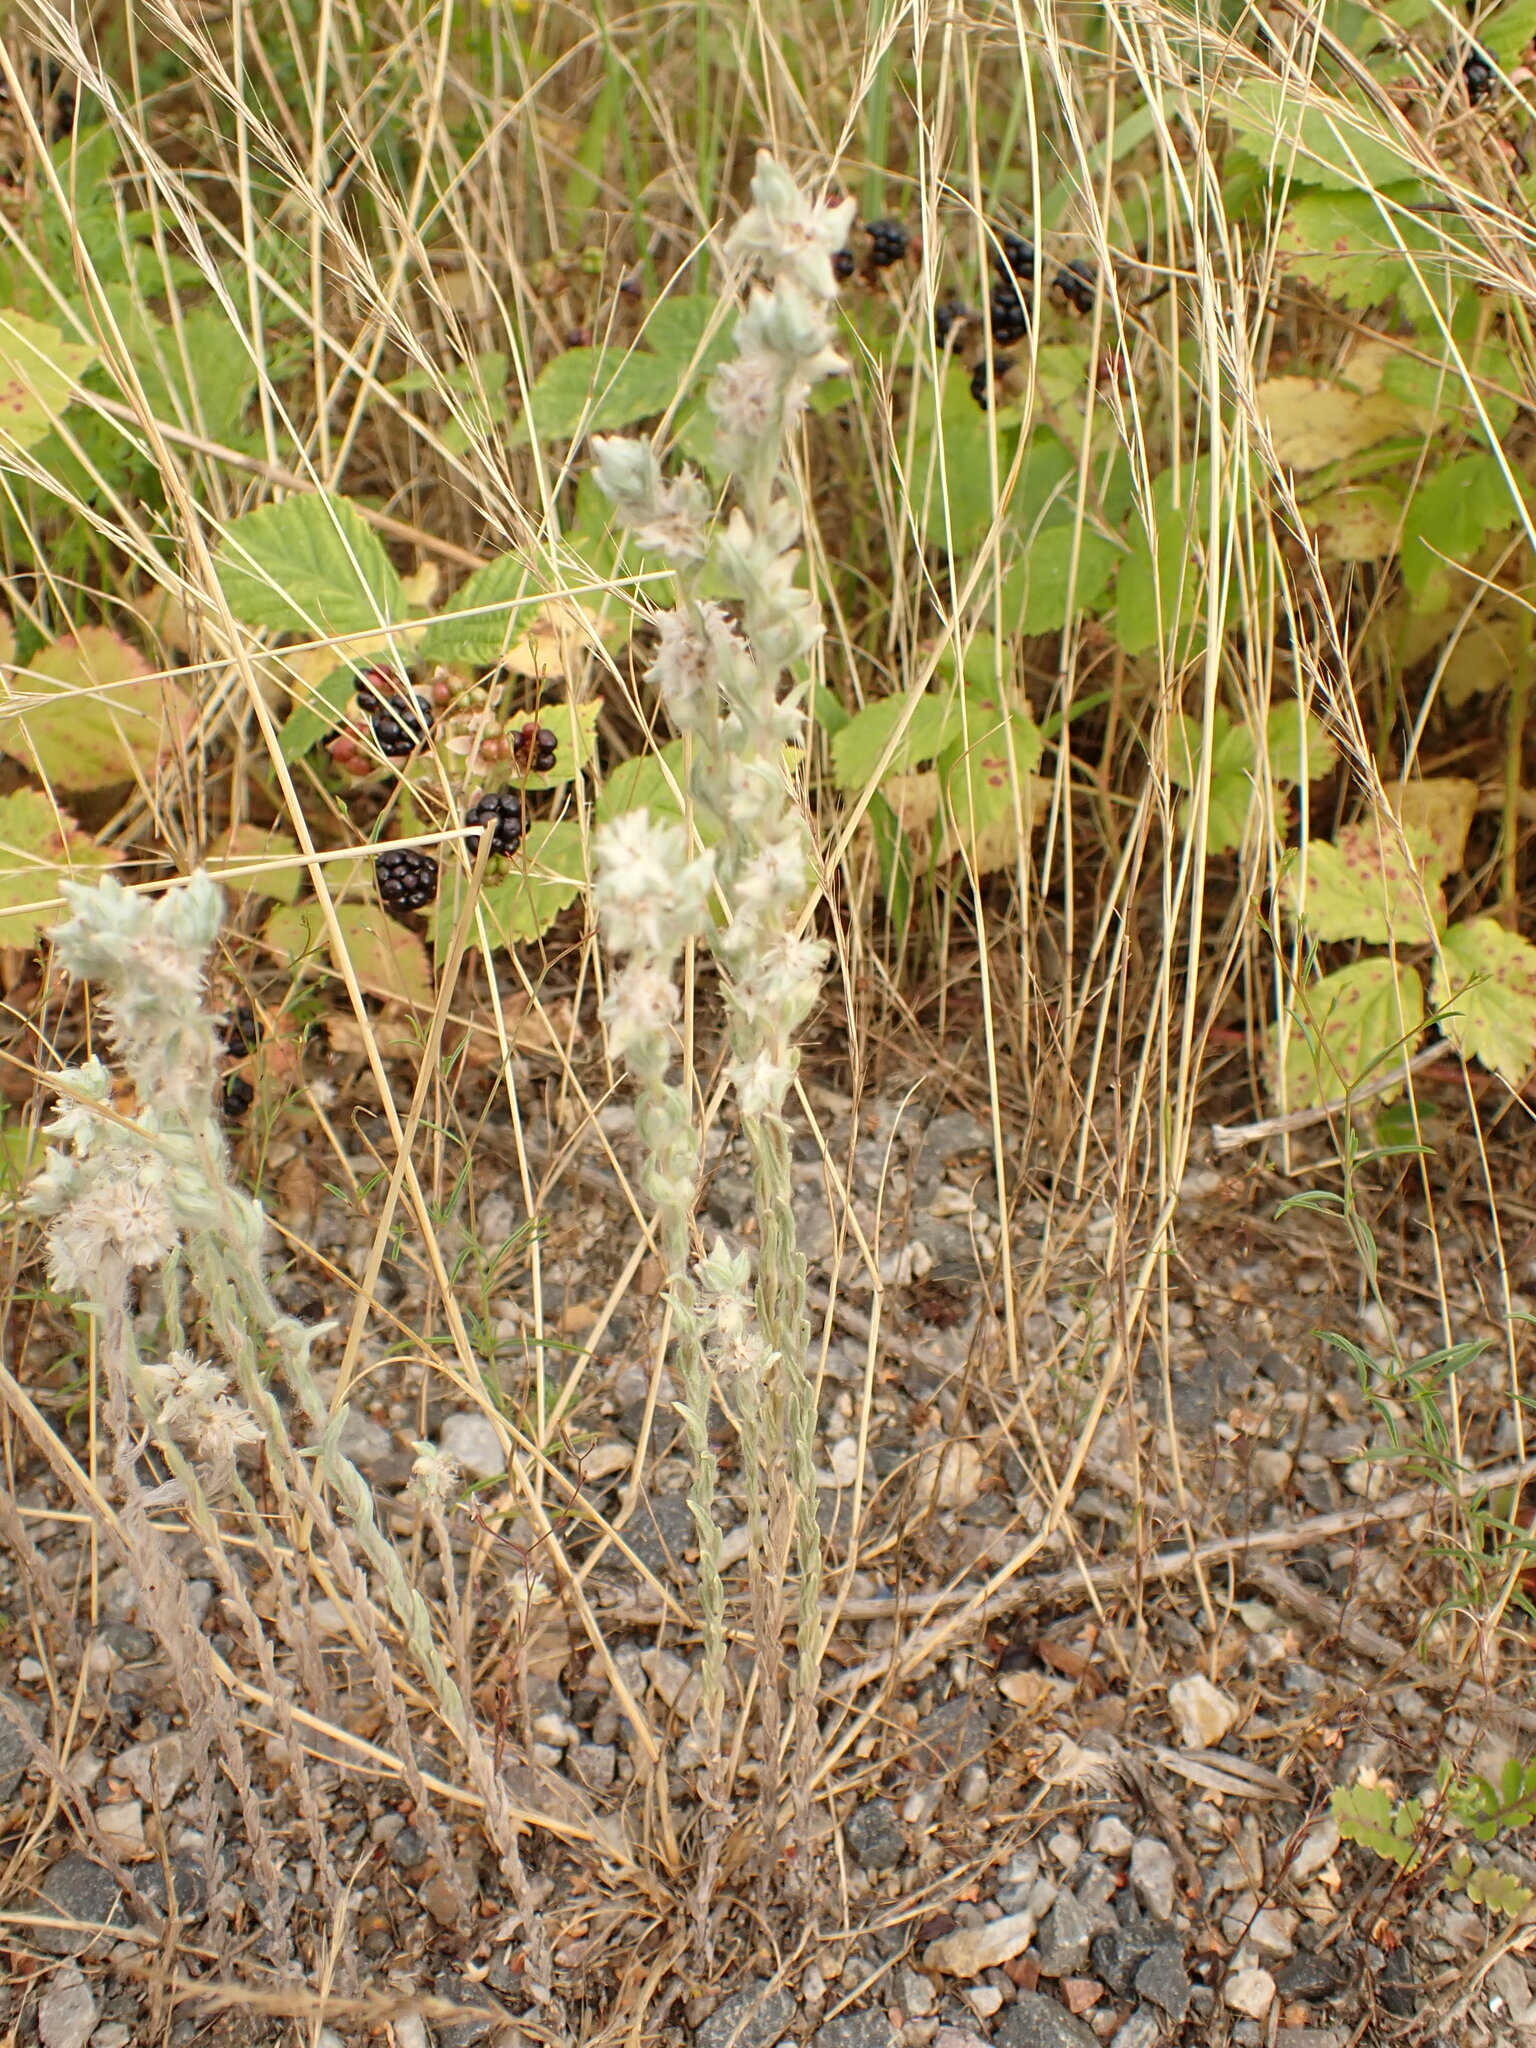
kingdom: Plantae
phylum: Tracheophyta
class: Magnoliopsida
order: Asterales
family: Asteraceae
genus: Filago
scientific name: Filago arvensis
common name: Field cudweed
